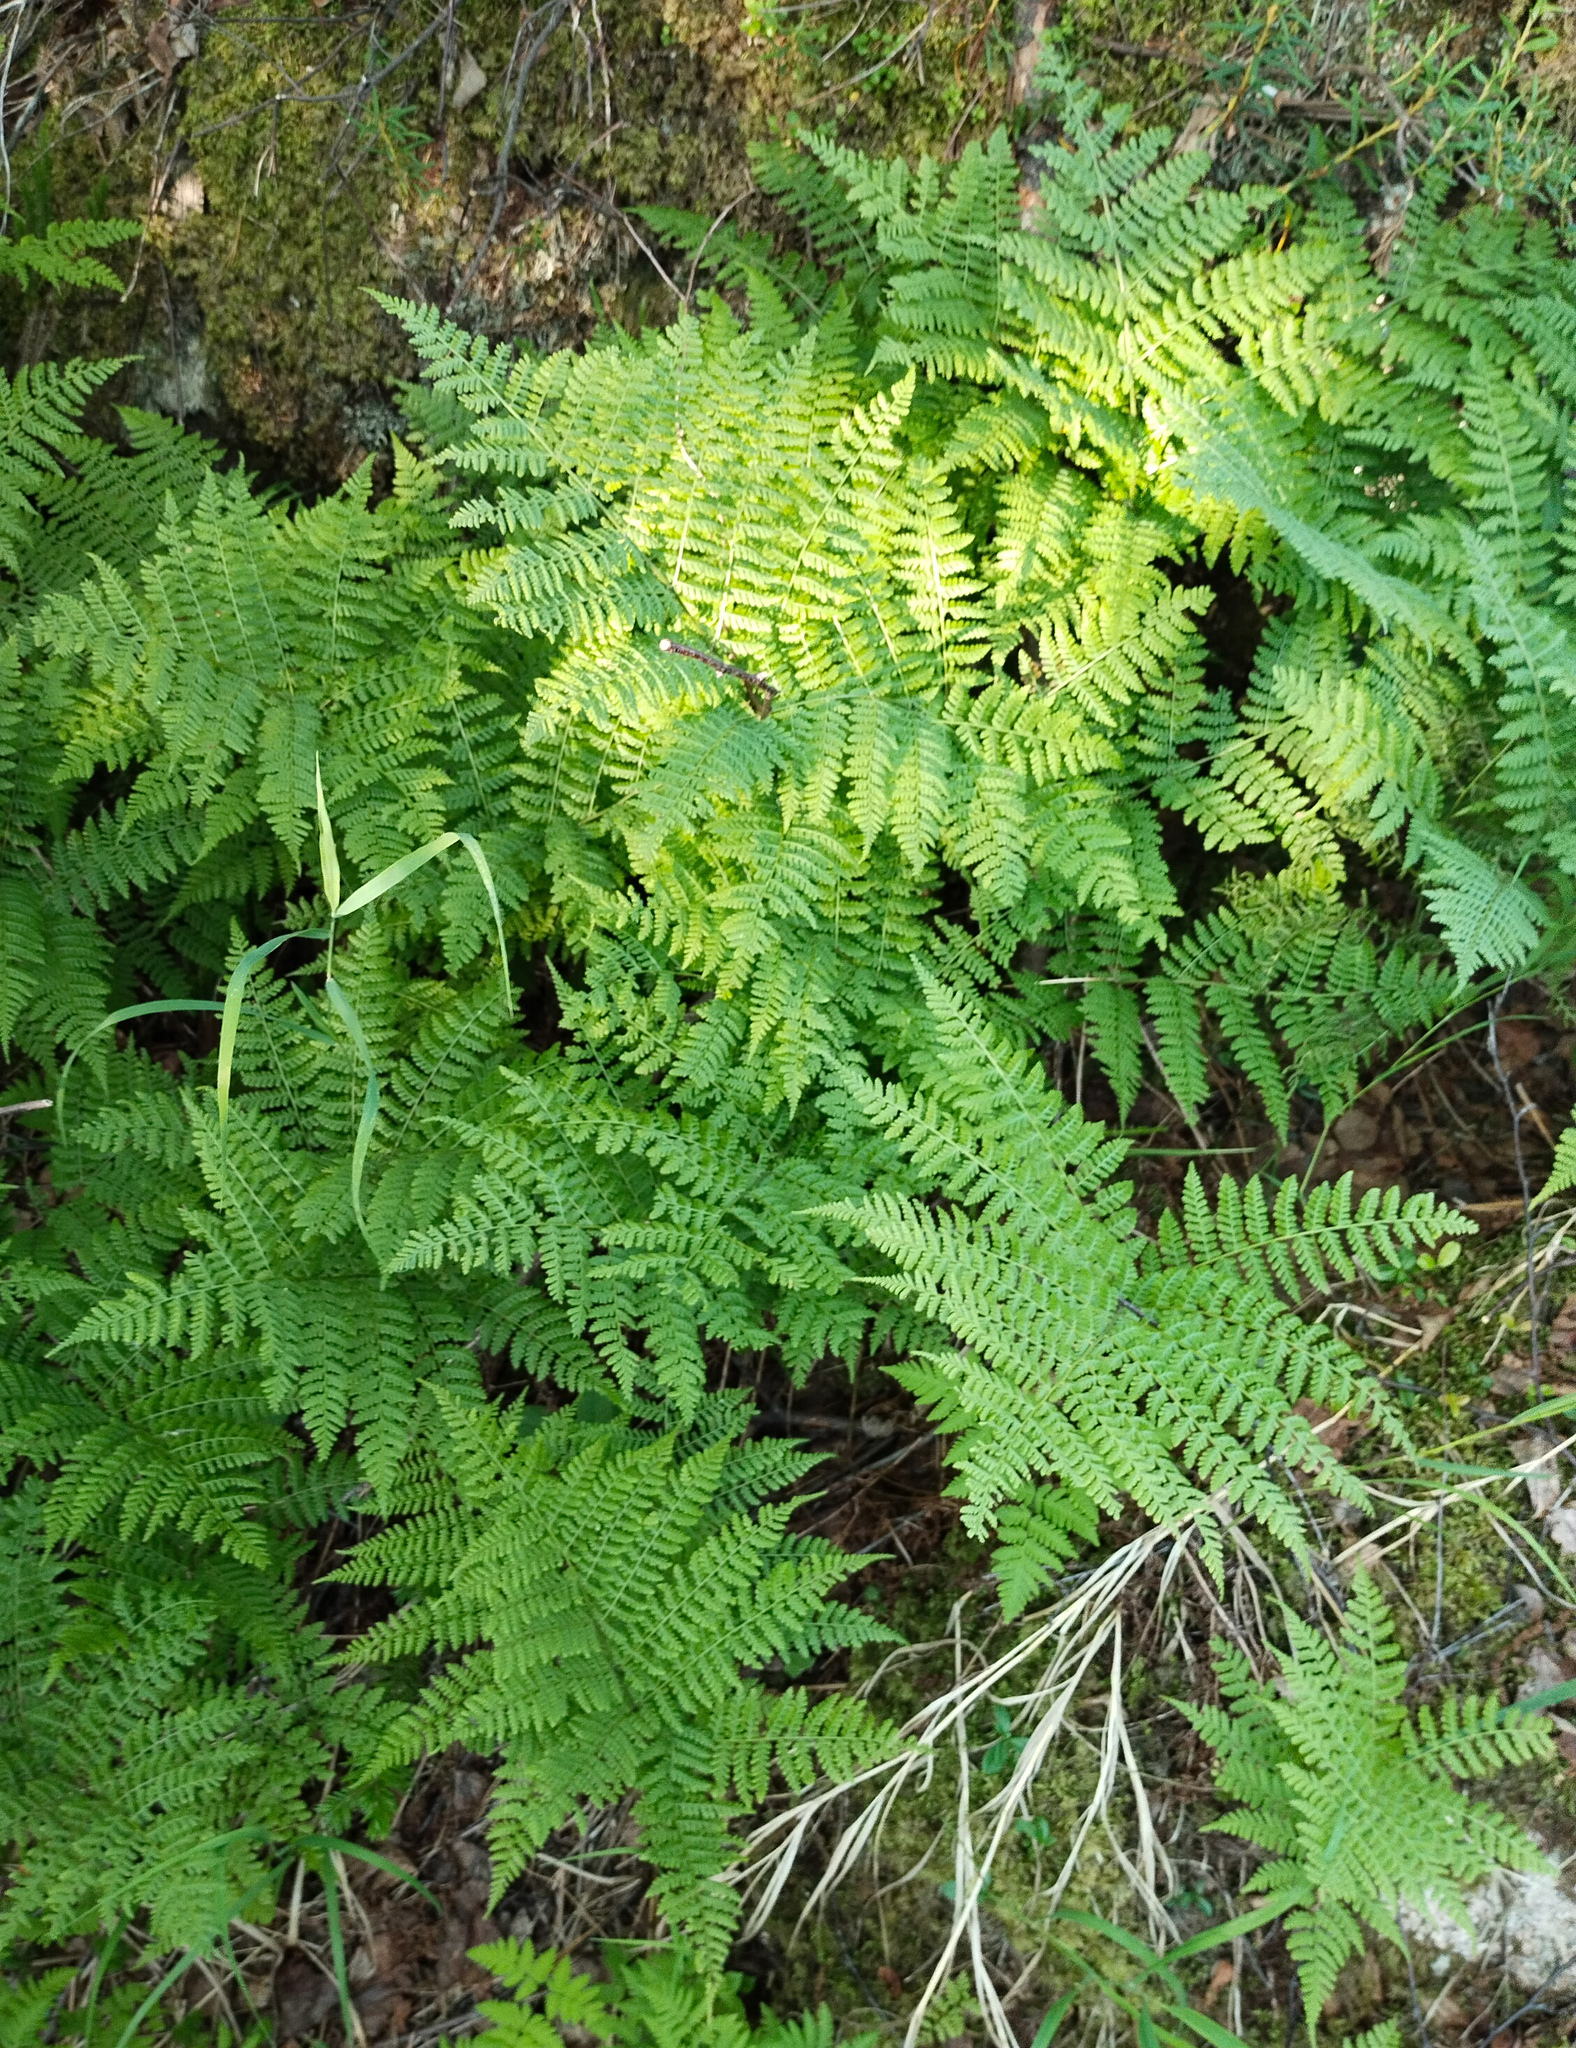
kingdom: Plantae
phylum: Tracheophyta
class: Polypodiopsida
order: Polypodiales
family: Athyriaceae
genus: Diplazium
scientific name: Diplazium sibiricum
